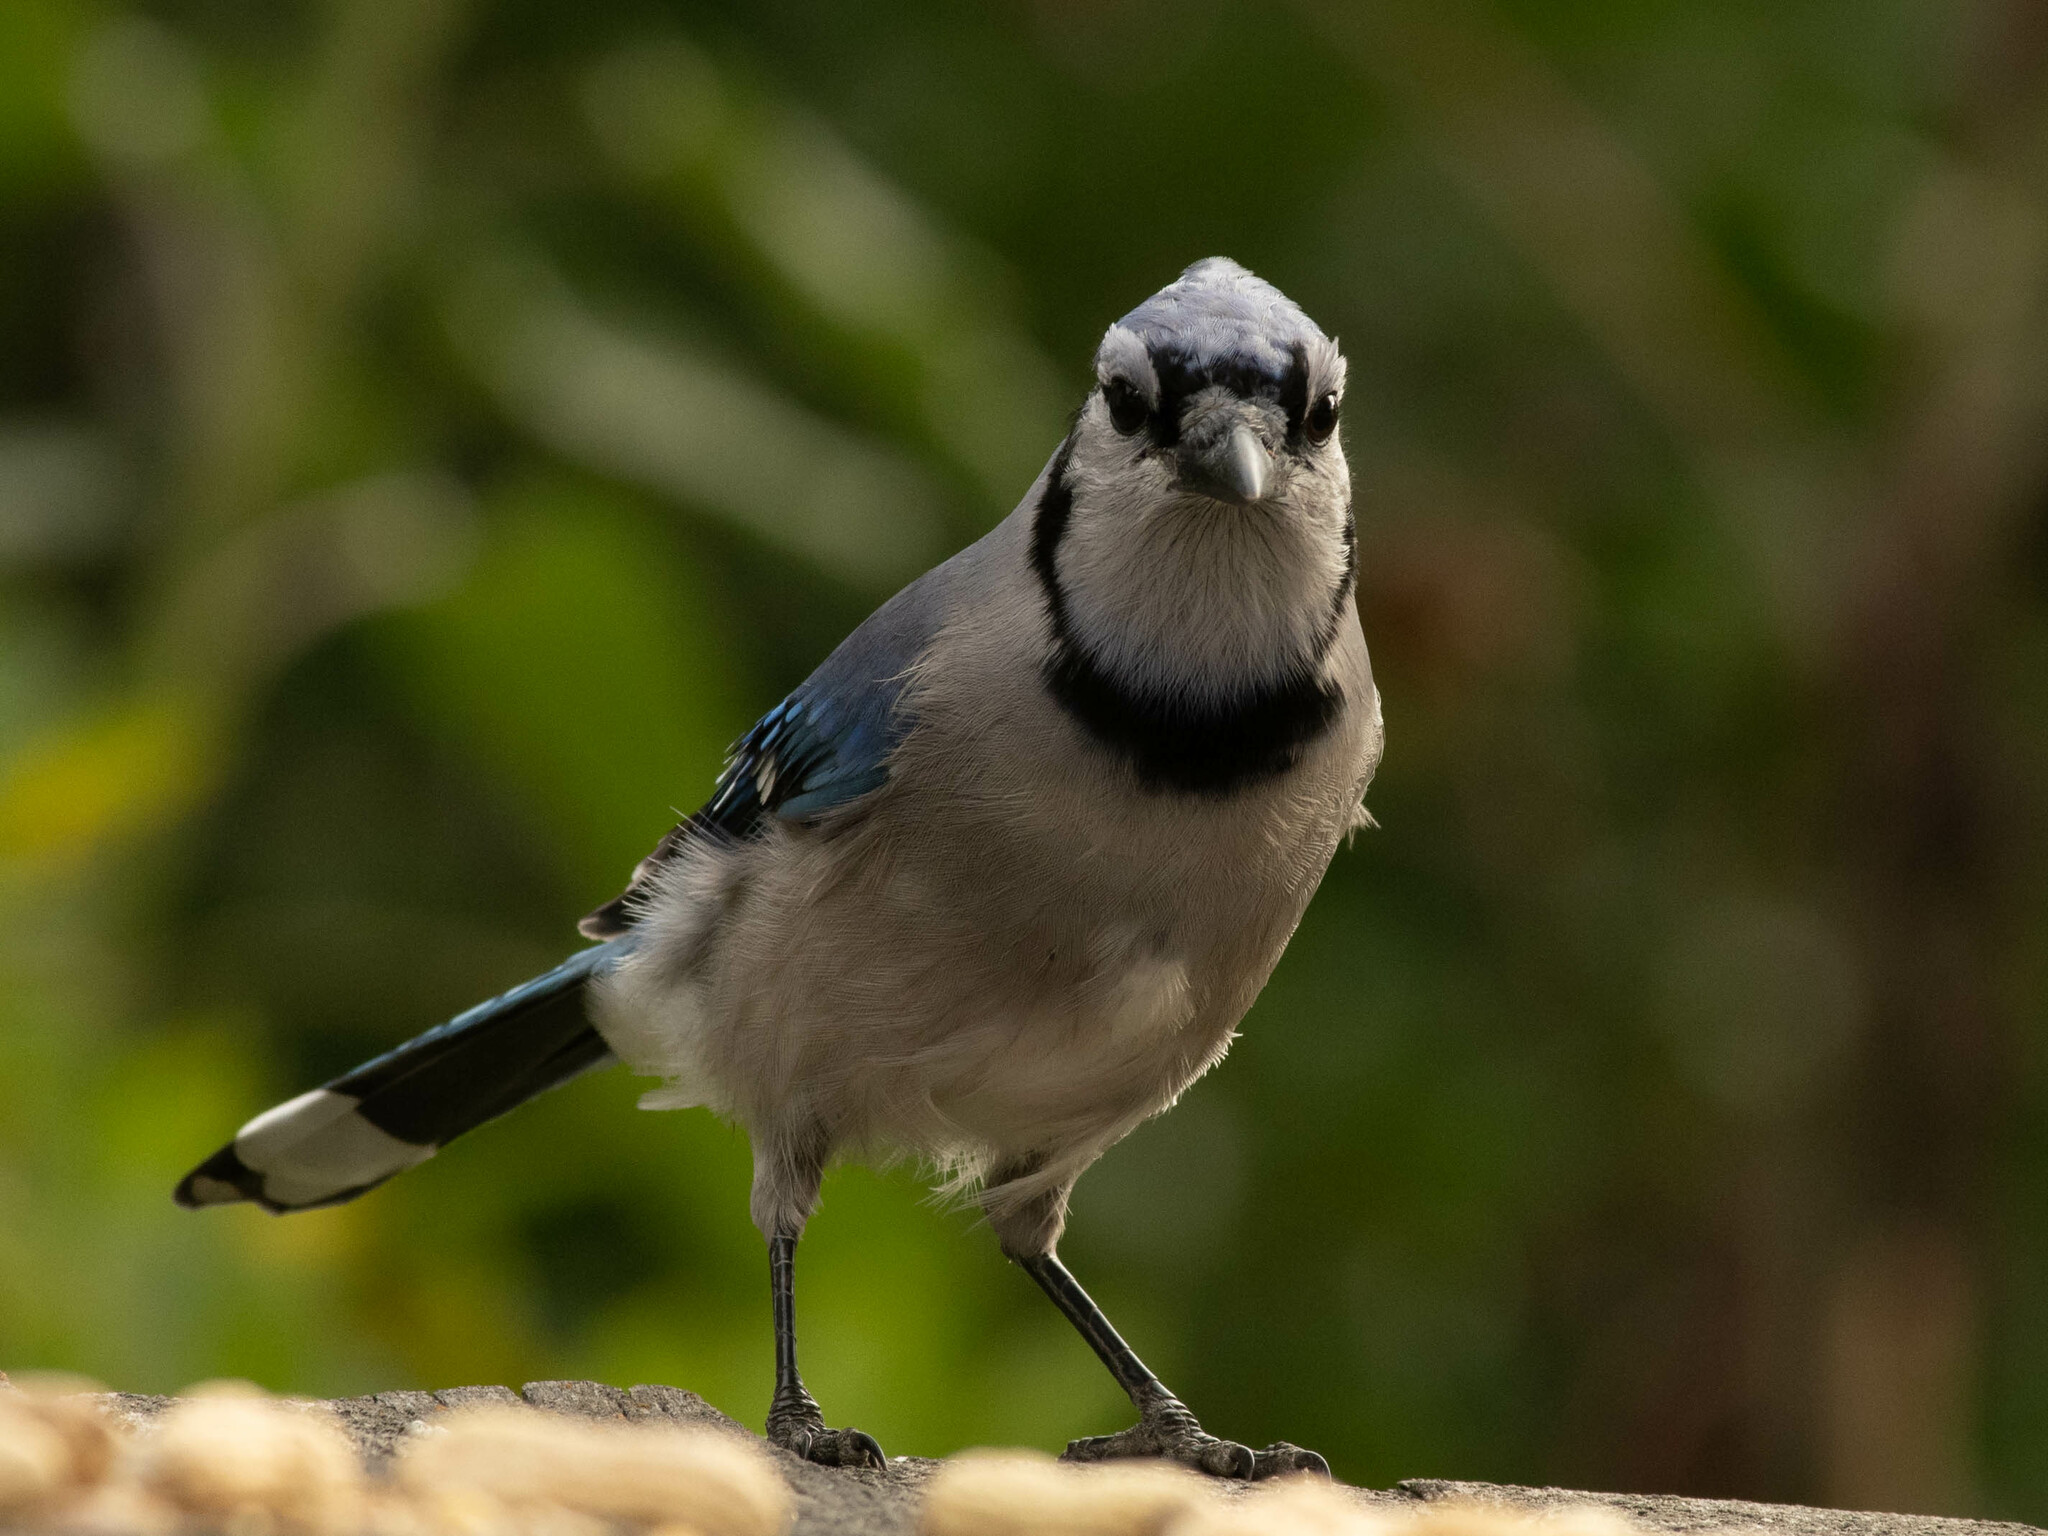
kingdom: Animalia
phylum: Chordata
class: Aves
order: Passeriformes
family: Corvidae
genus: Cyanocitta
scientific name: Cyanocitta cristata
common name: Blue jay
